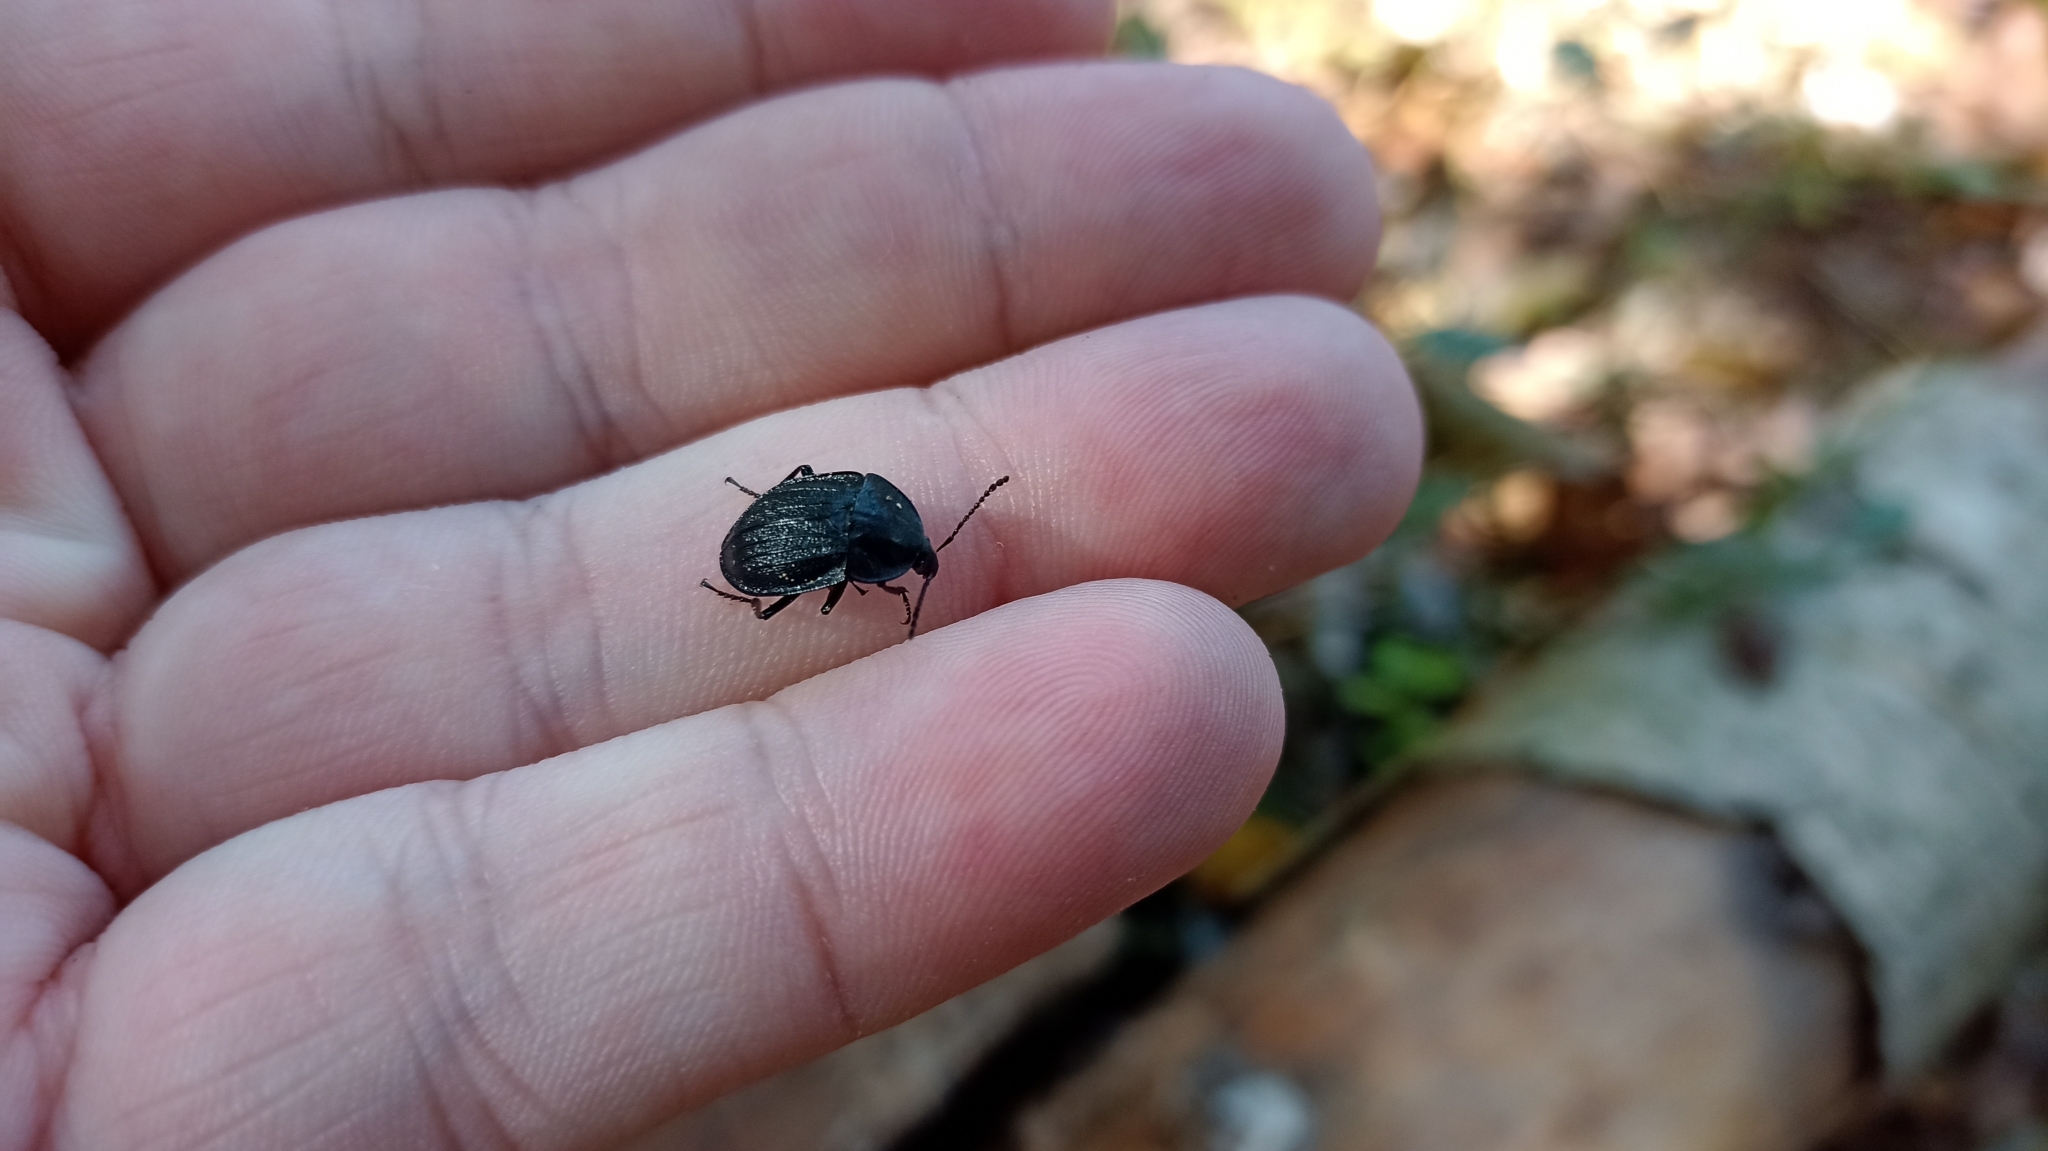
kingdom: Animalia
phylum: Arthropoda
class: Insecta
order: Coleoptera
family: Staphylinidae
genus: Silpha
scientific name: Silpha atrata
